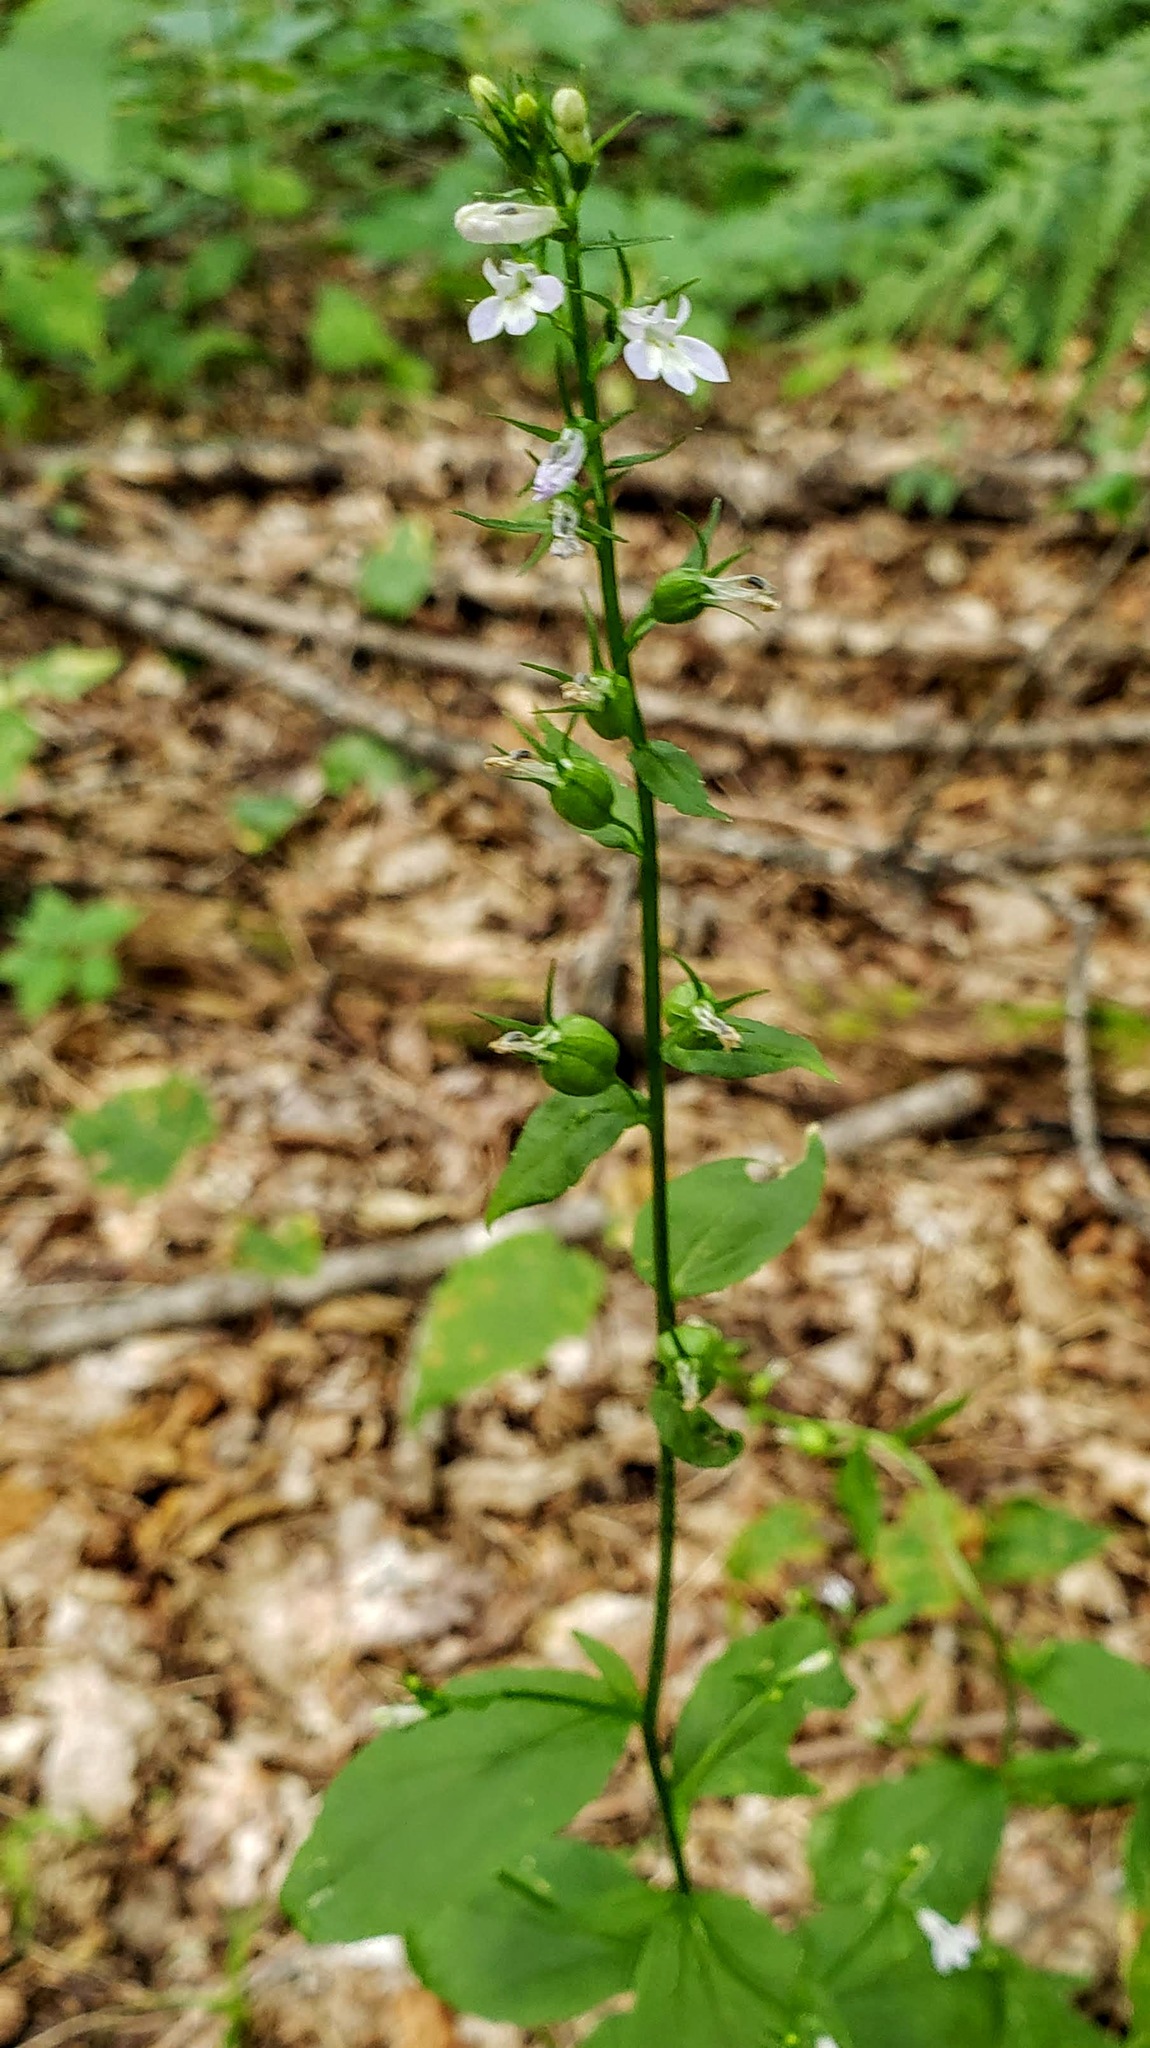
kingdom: Plantae
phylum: Tracheophyta
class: Magnoliopsida
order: Asterales
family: Campanulaceae
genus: Lobelia
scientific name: Lobelia inflata
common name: Indian tobacco
